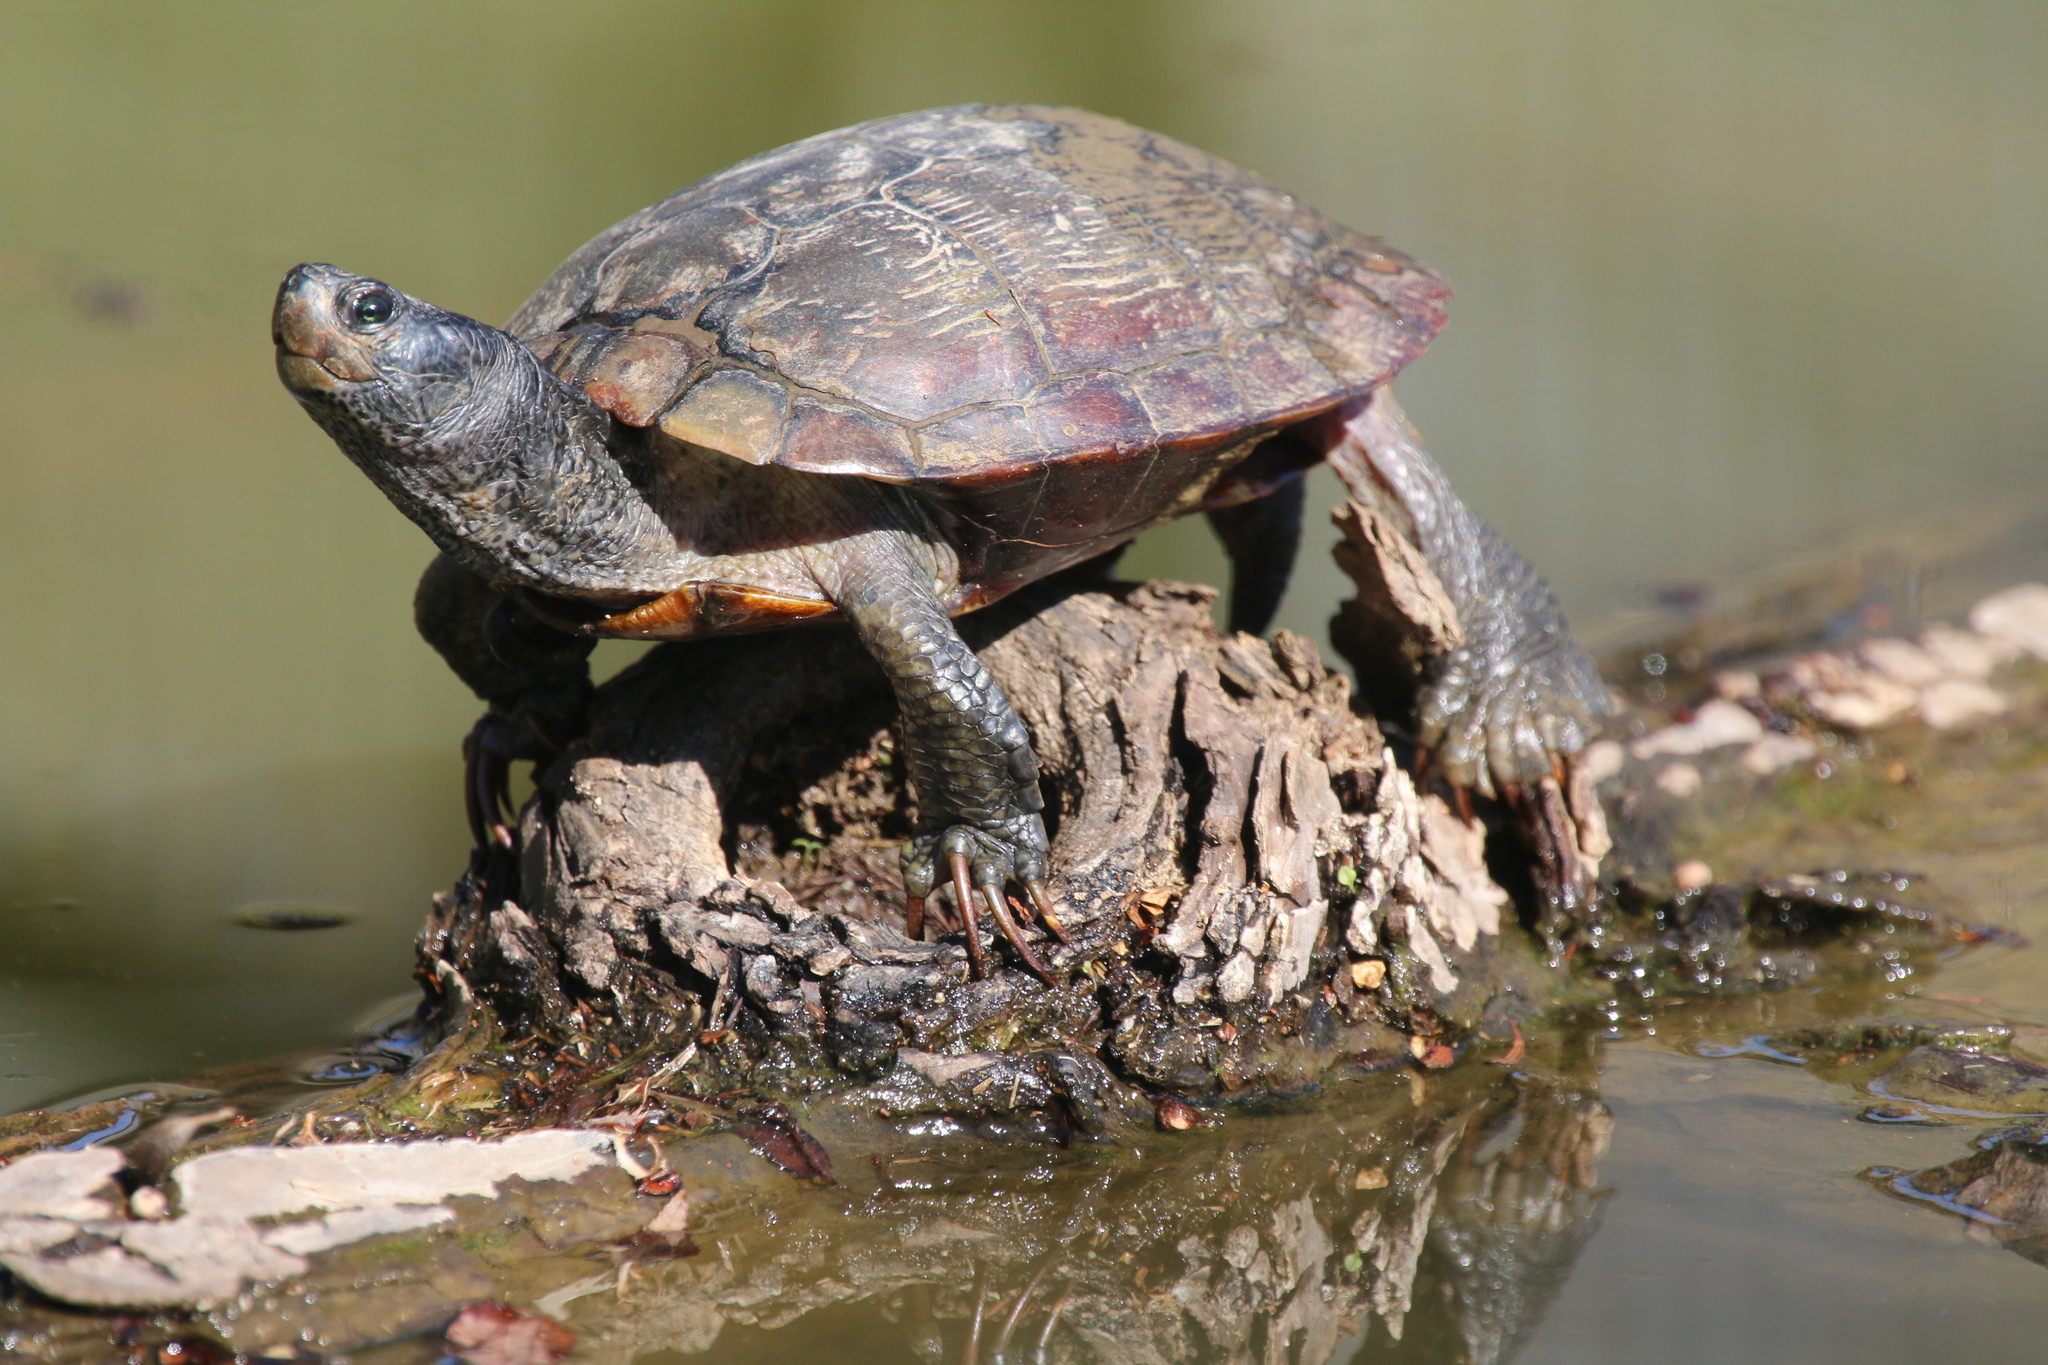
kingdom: Animalia
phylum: Chordata
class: Testudines
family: Emydidae
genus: Trachemys
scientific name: Trachemys scripta
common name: Slider
